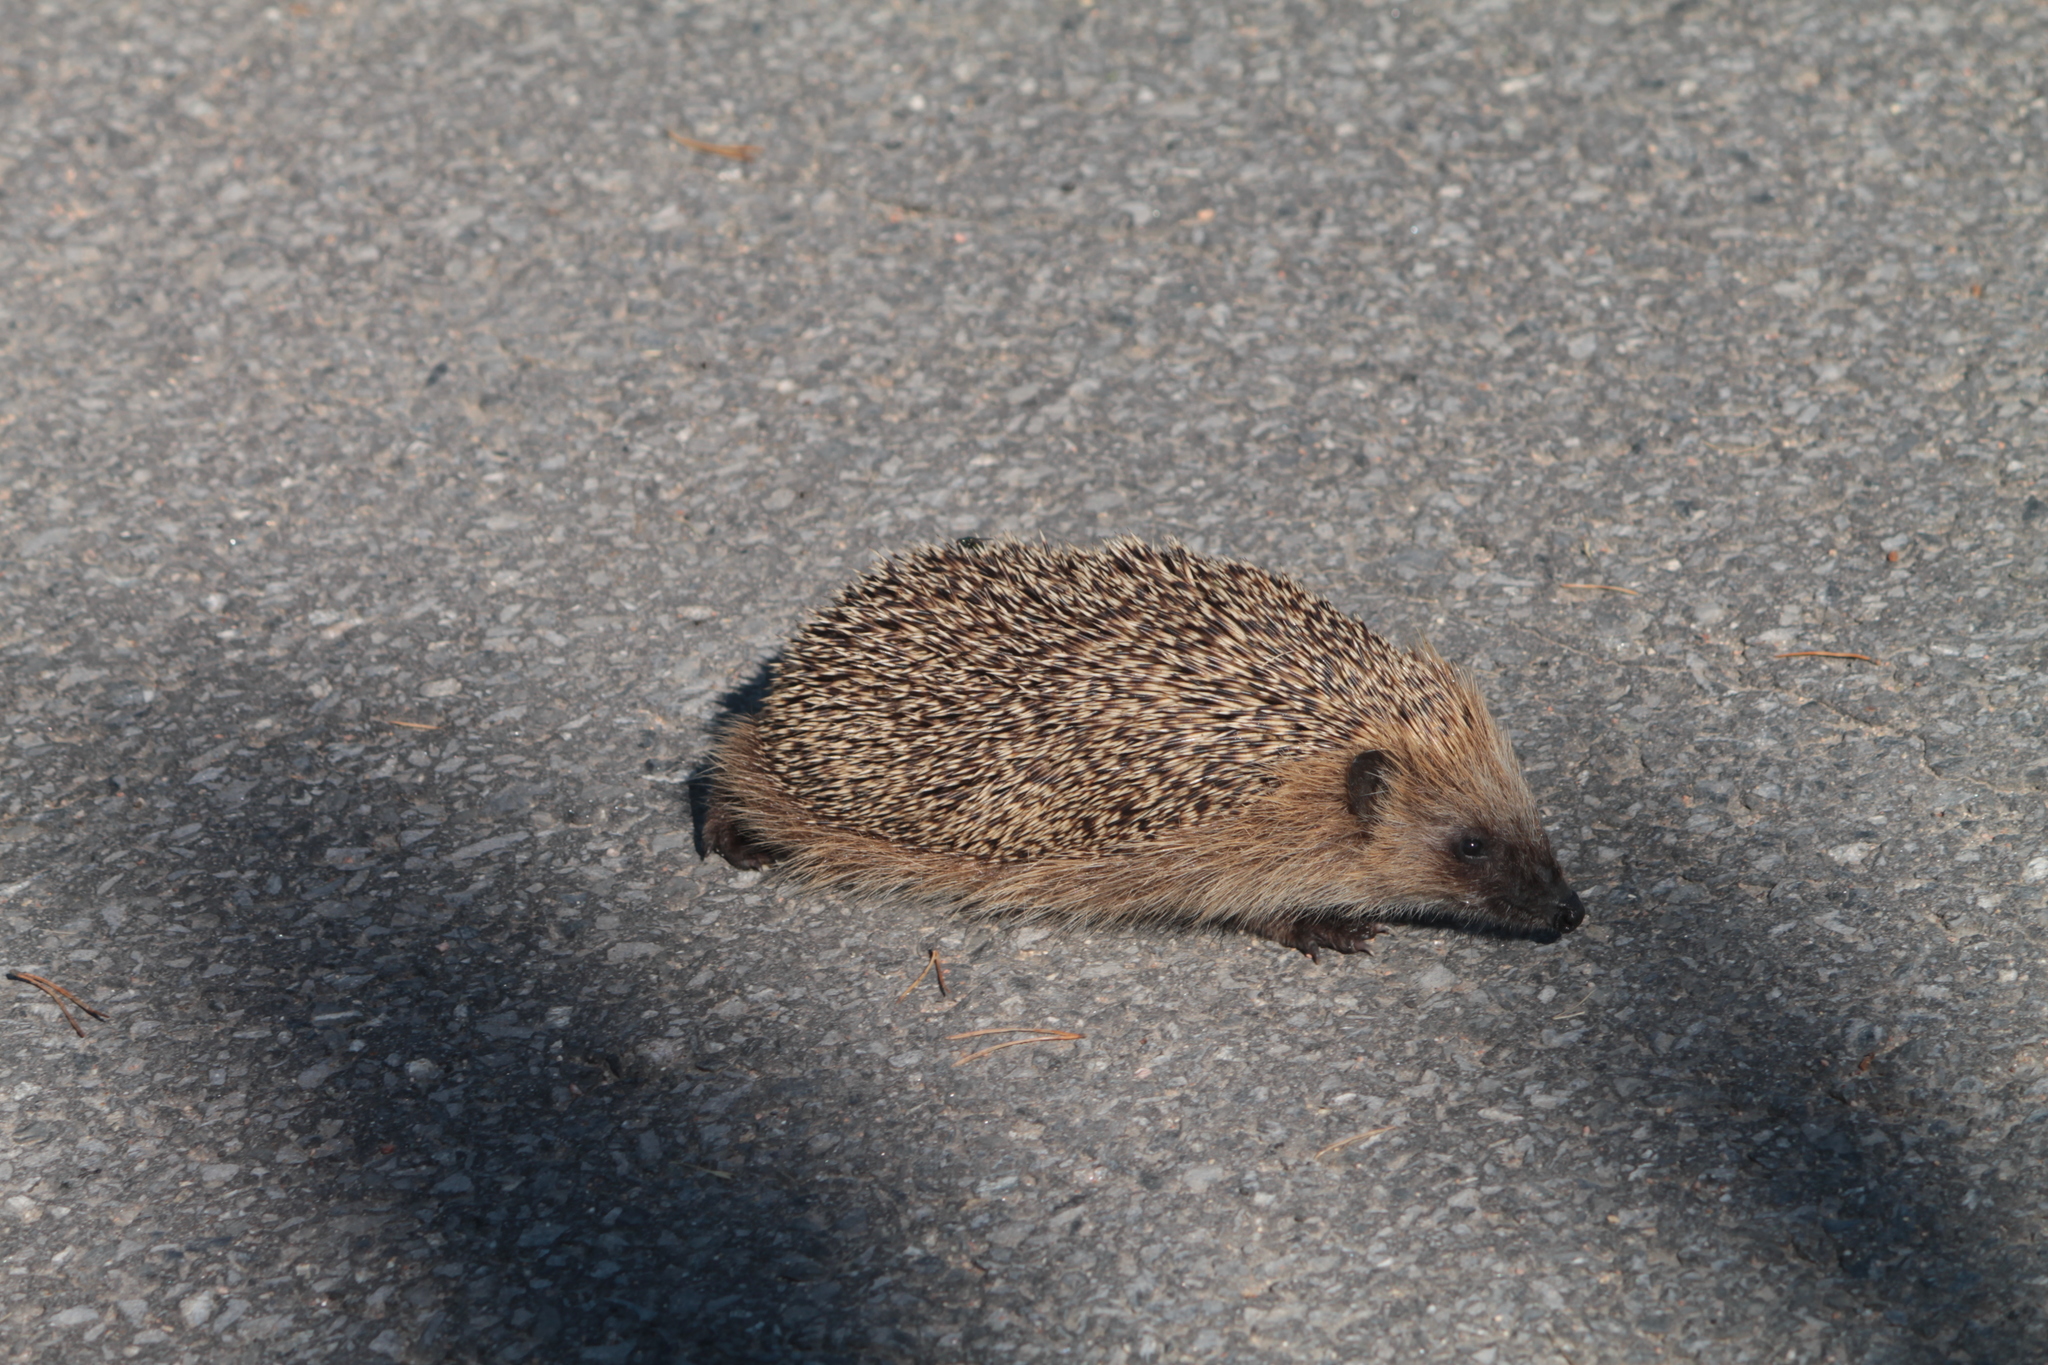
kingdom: Animalia
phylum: Chordata
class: Mammalia
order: Erinaceomorpha
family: Erinaceidae
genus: Erinaceus
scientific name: Erinaceus europaeus
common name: West european hedgehog
